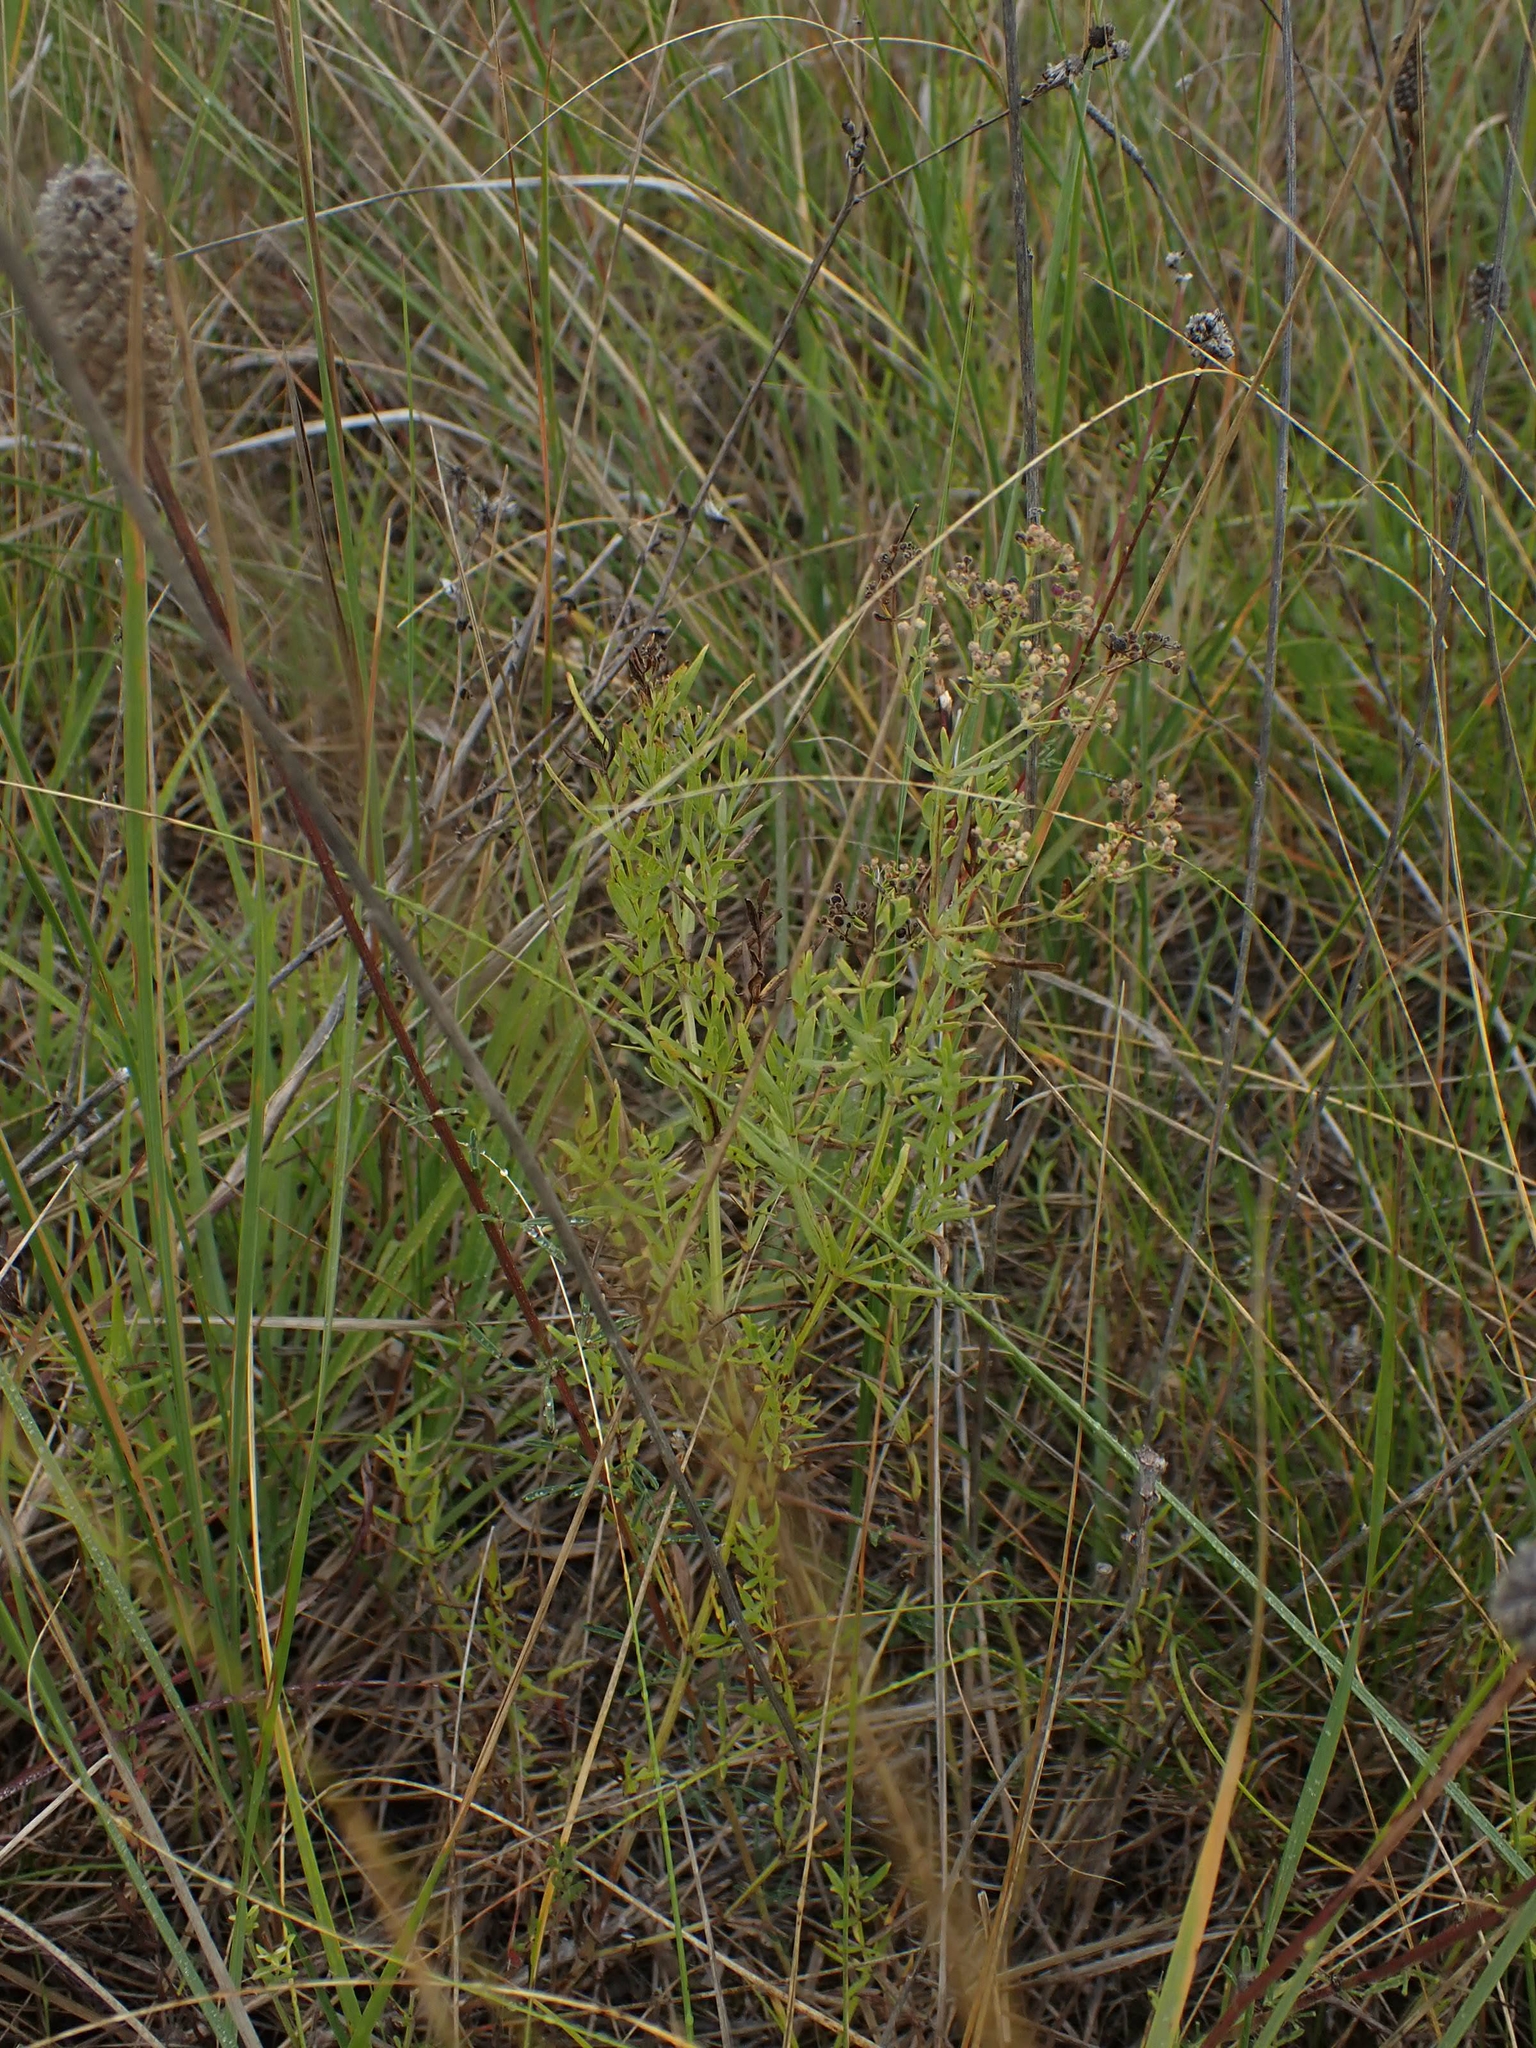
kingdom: Plantae
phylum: Tracheophyta
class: Magnoliopsida
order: Gentianales
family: Rubiaceae
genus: Galium
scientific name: Galium boreale
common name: Northern bedstraw
